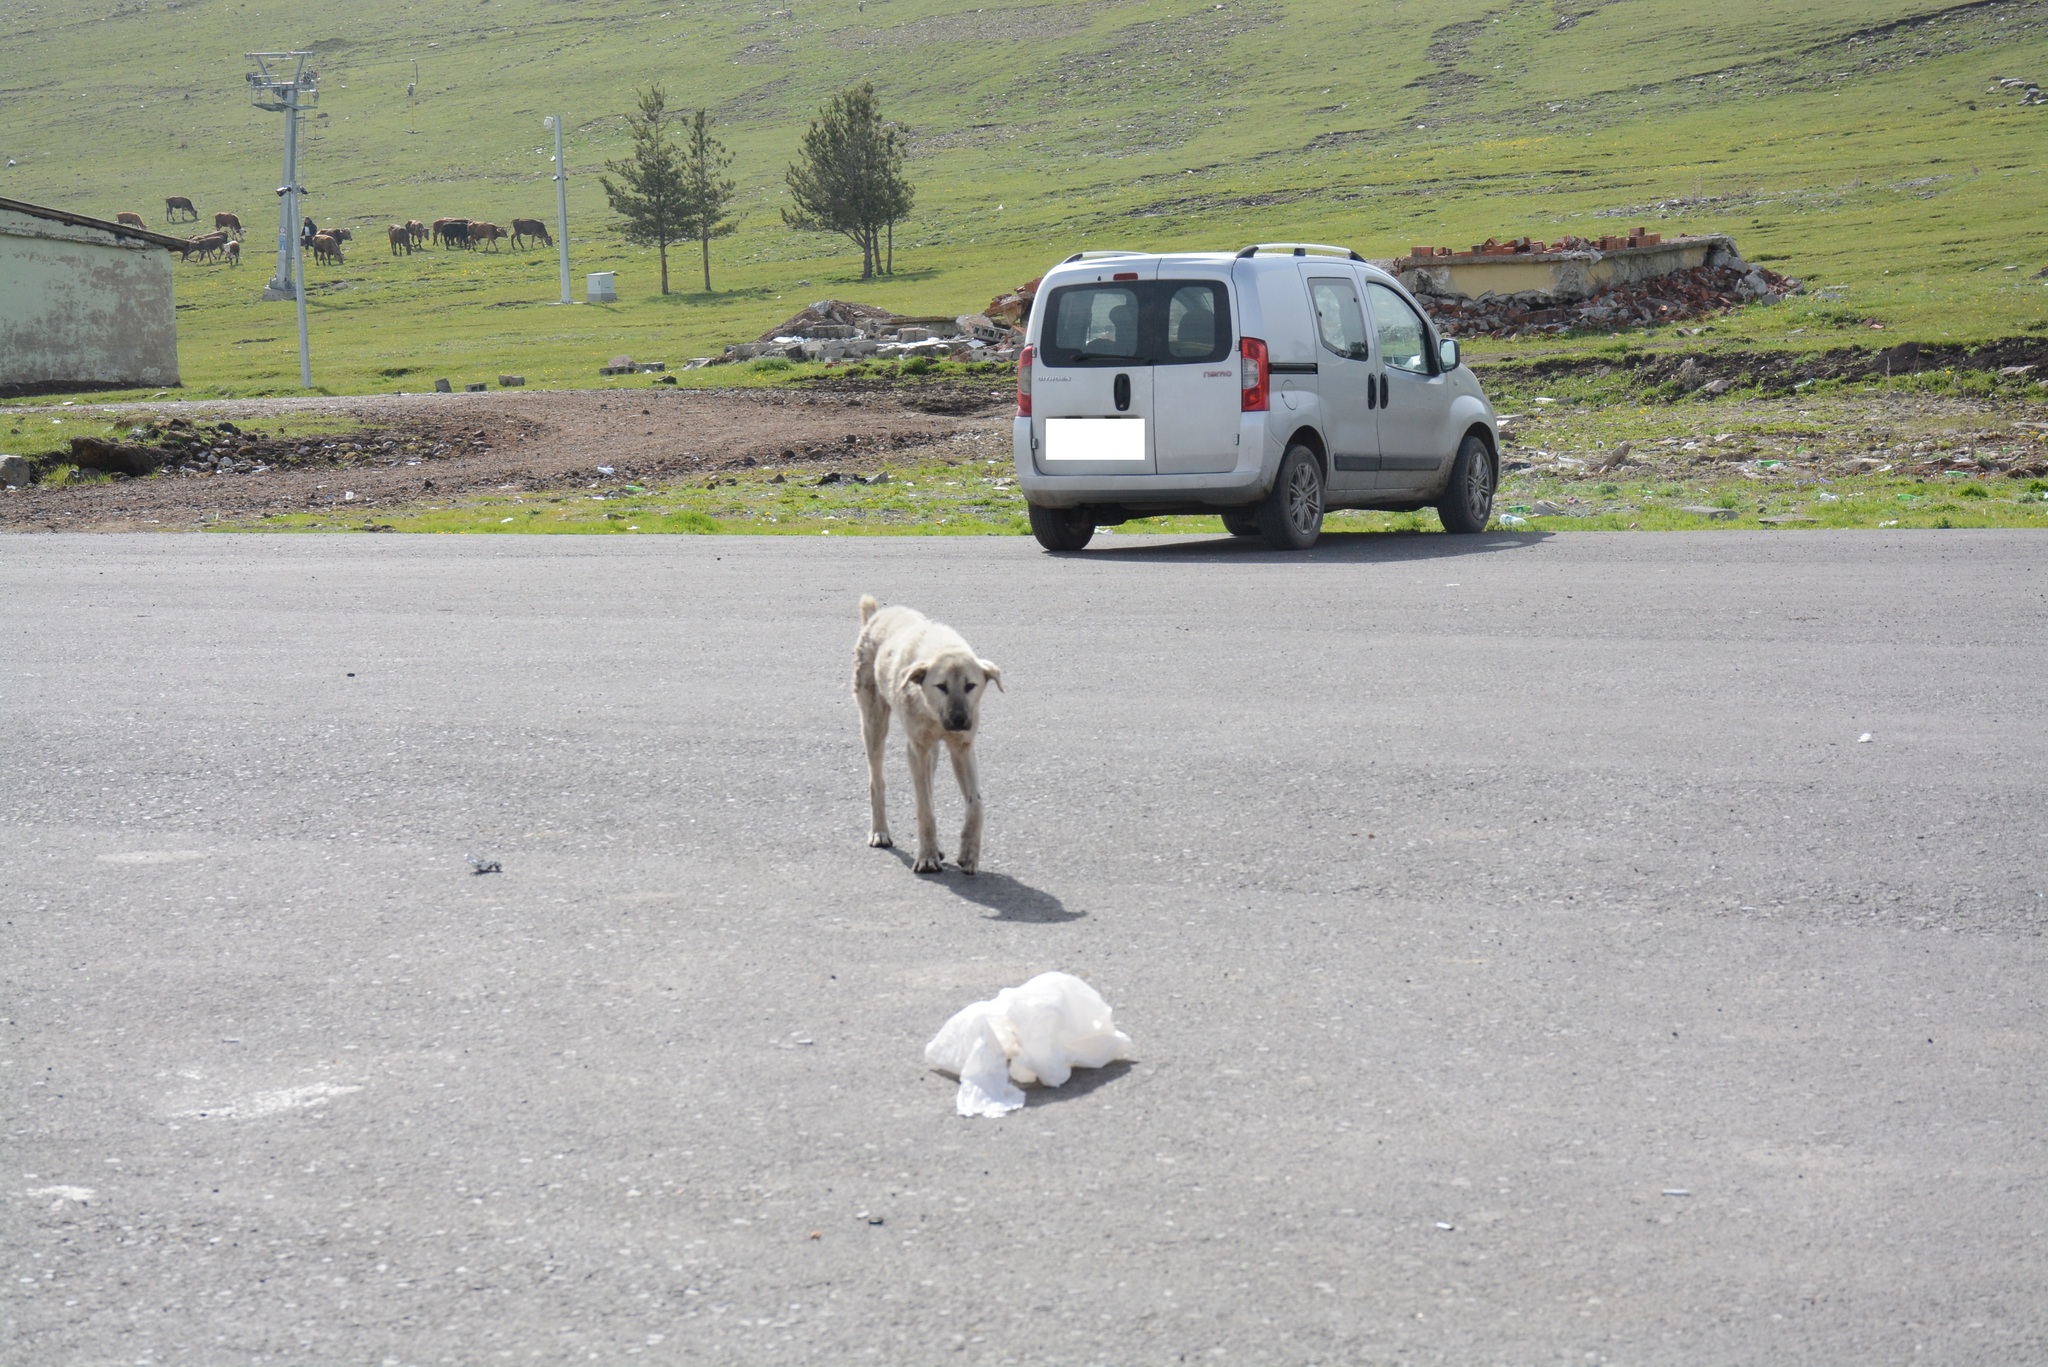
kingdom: Animalia
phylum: Chordata
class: Mammalia
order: Carnivora
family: Canidae
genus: Canis
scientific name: Canis lupus
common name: Gray wolf
